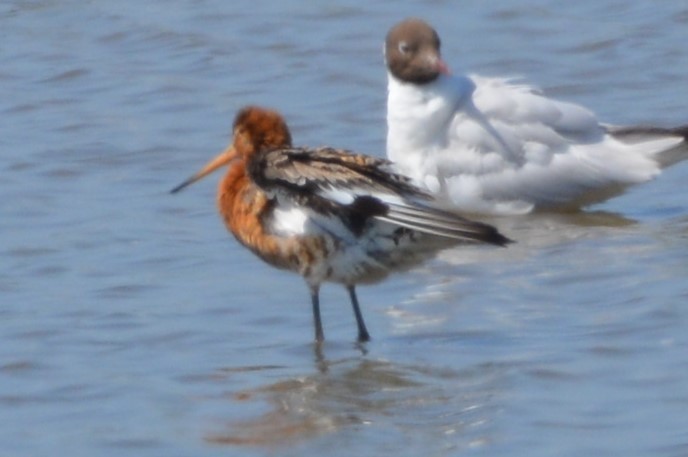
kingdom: Animalia
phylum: Chordata
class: Aves
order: Charadriiformes
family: Scolopacidae
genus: Limosa
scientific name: Limosa limosa
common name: Black-tailed godwit
